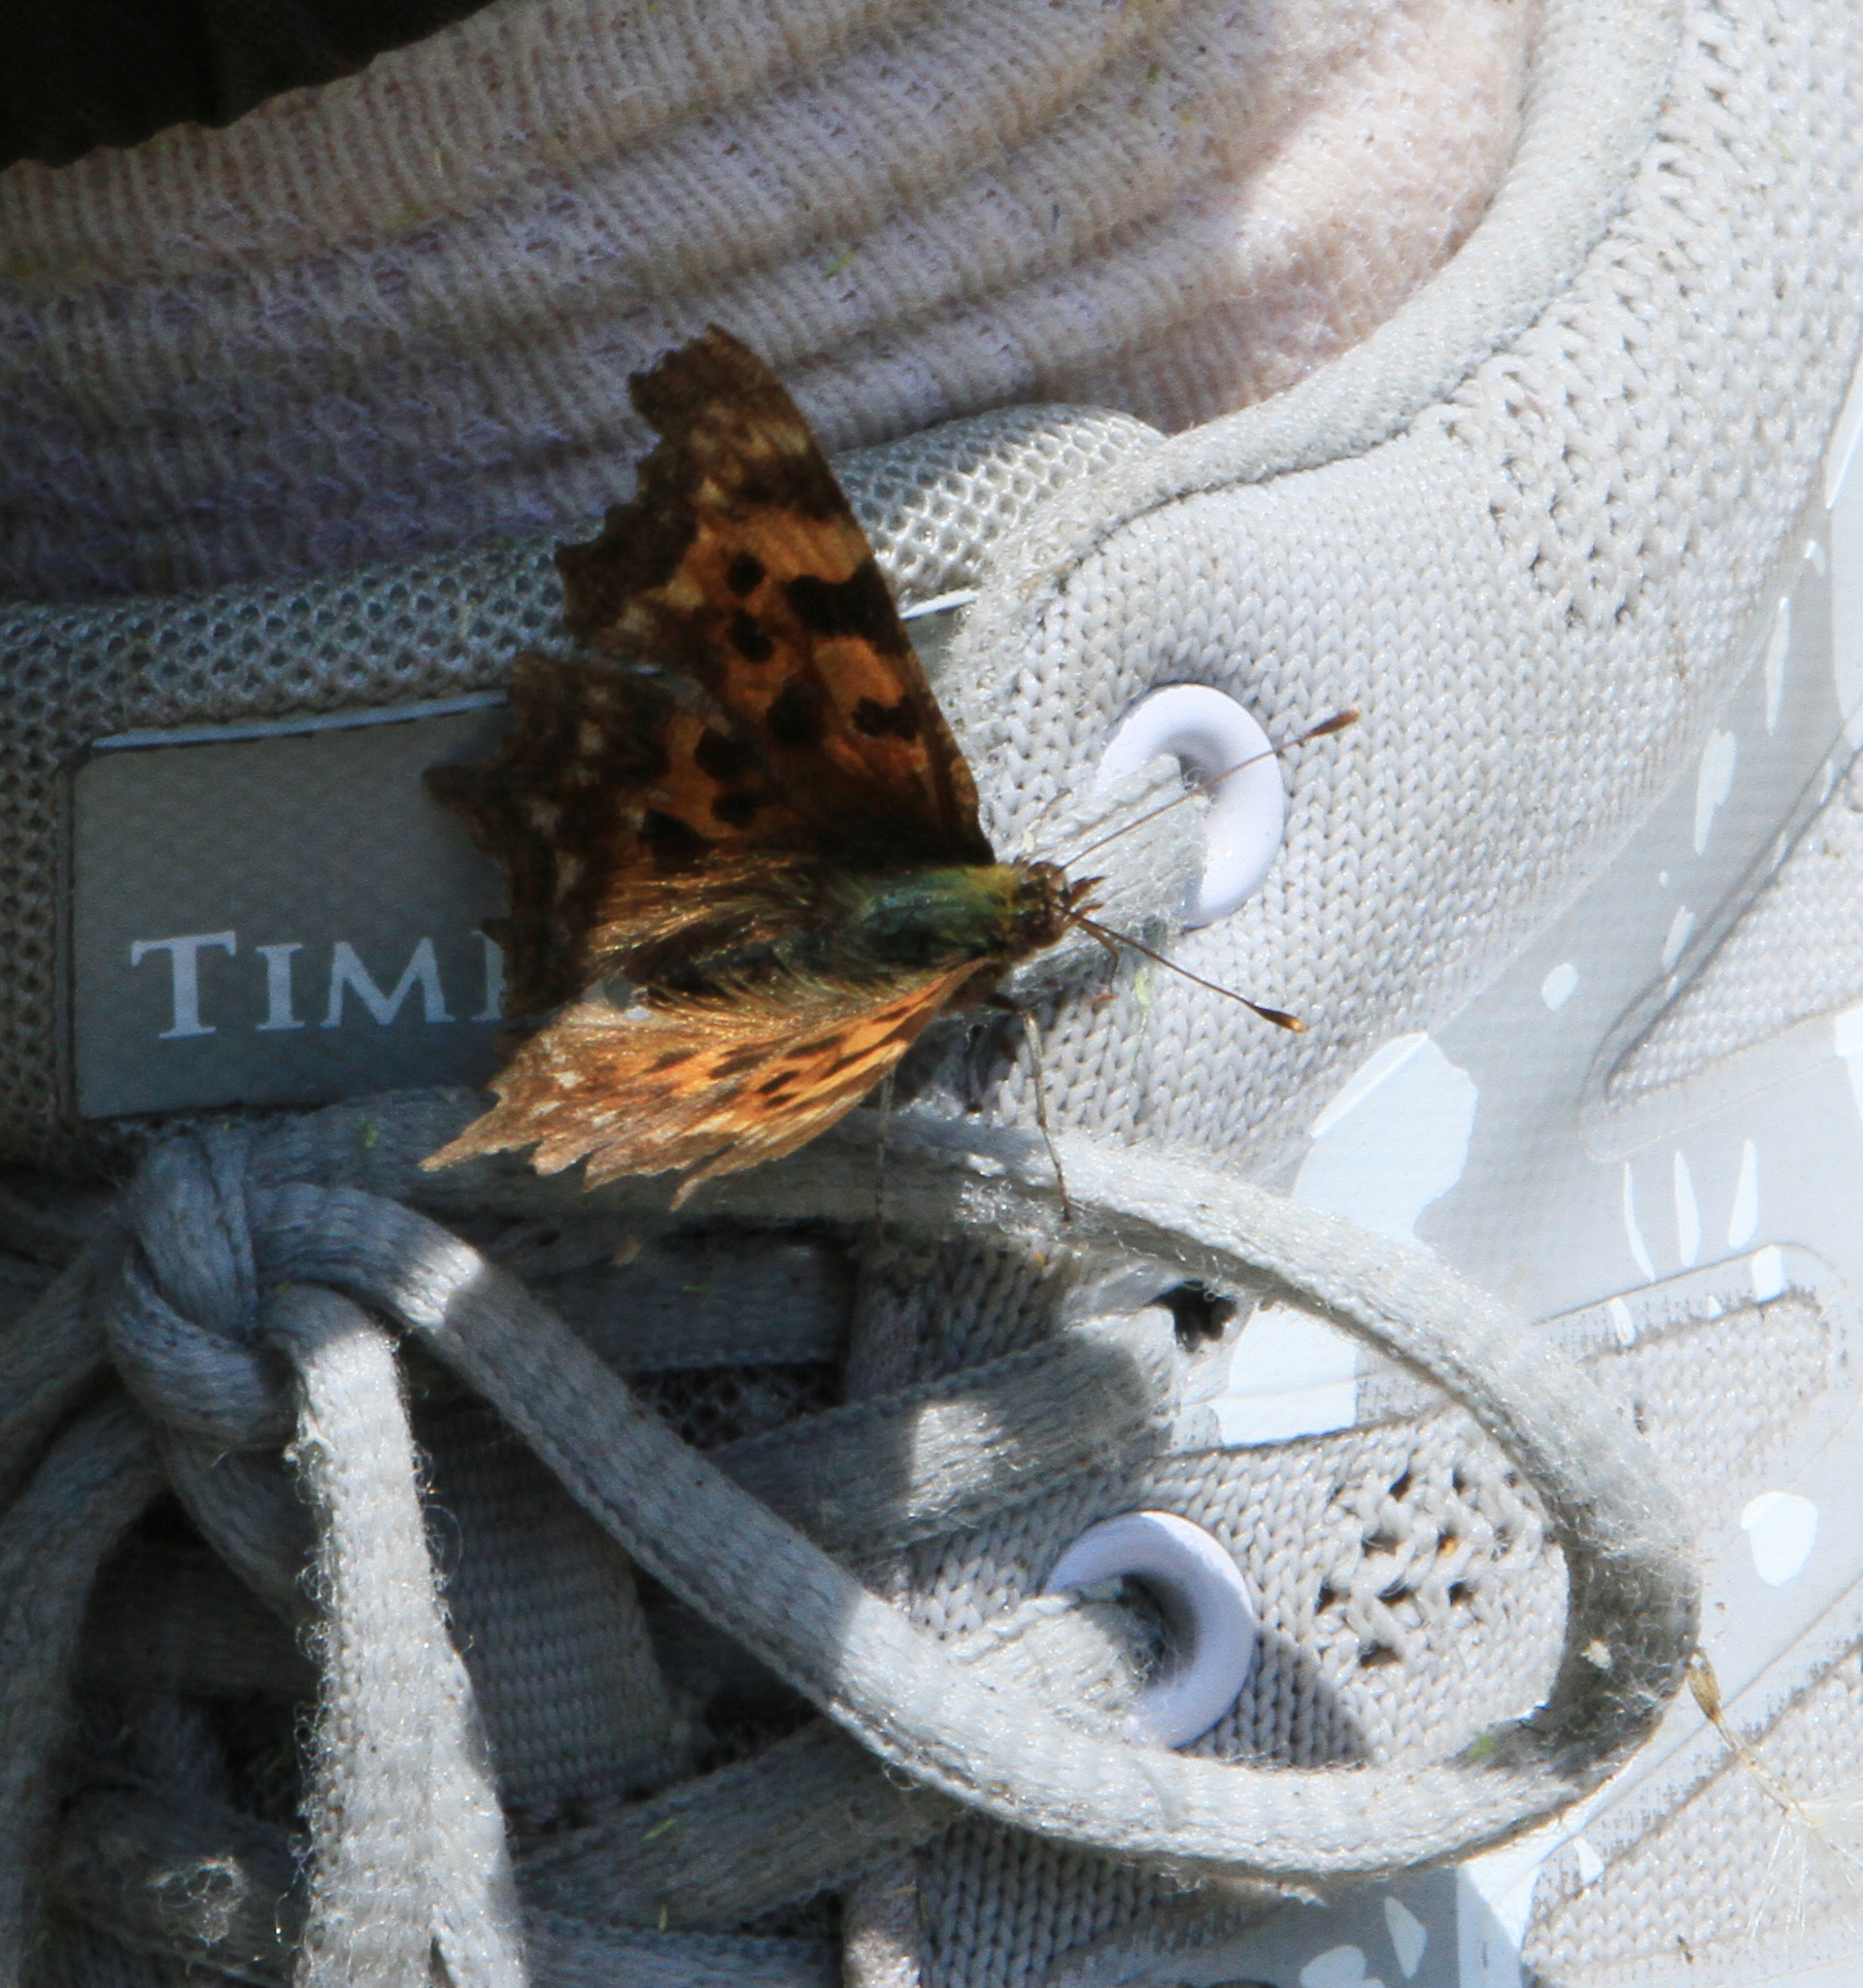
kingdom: Animalia
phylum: Arthropoda
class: Insecta
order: Lepidoptera
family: Nymphalidae
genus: Polygonia
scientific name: Polygonia c-album
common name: Comma
